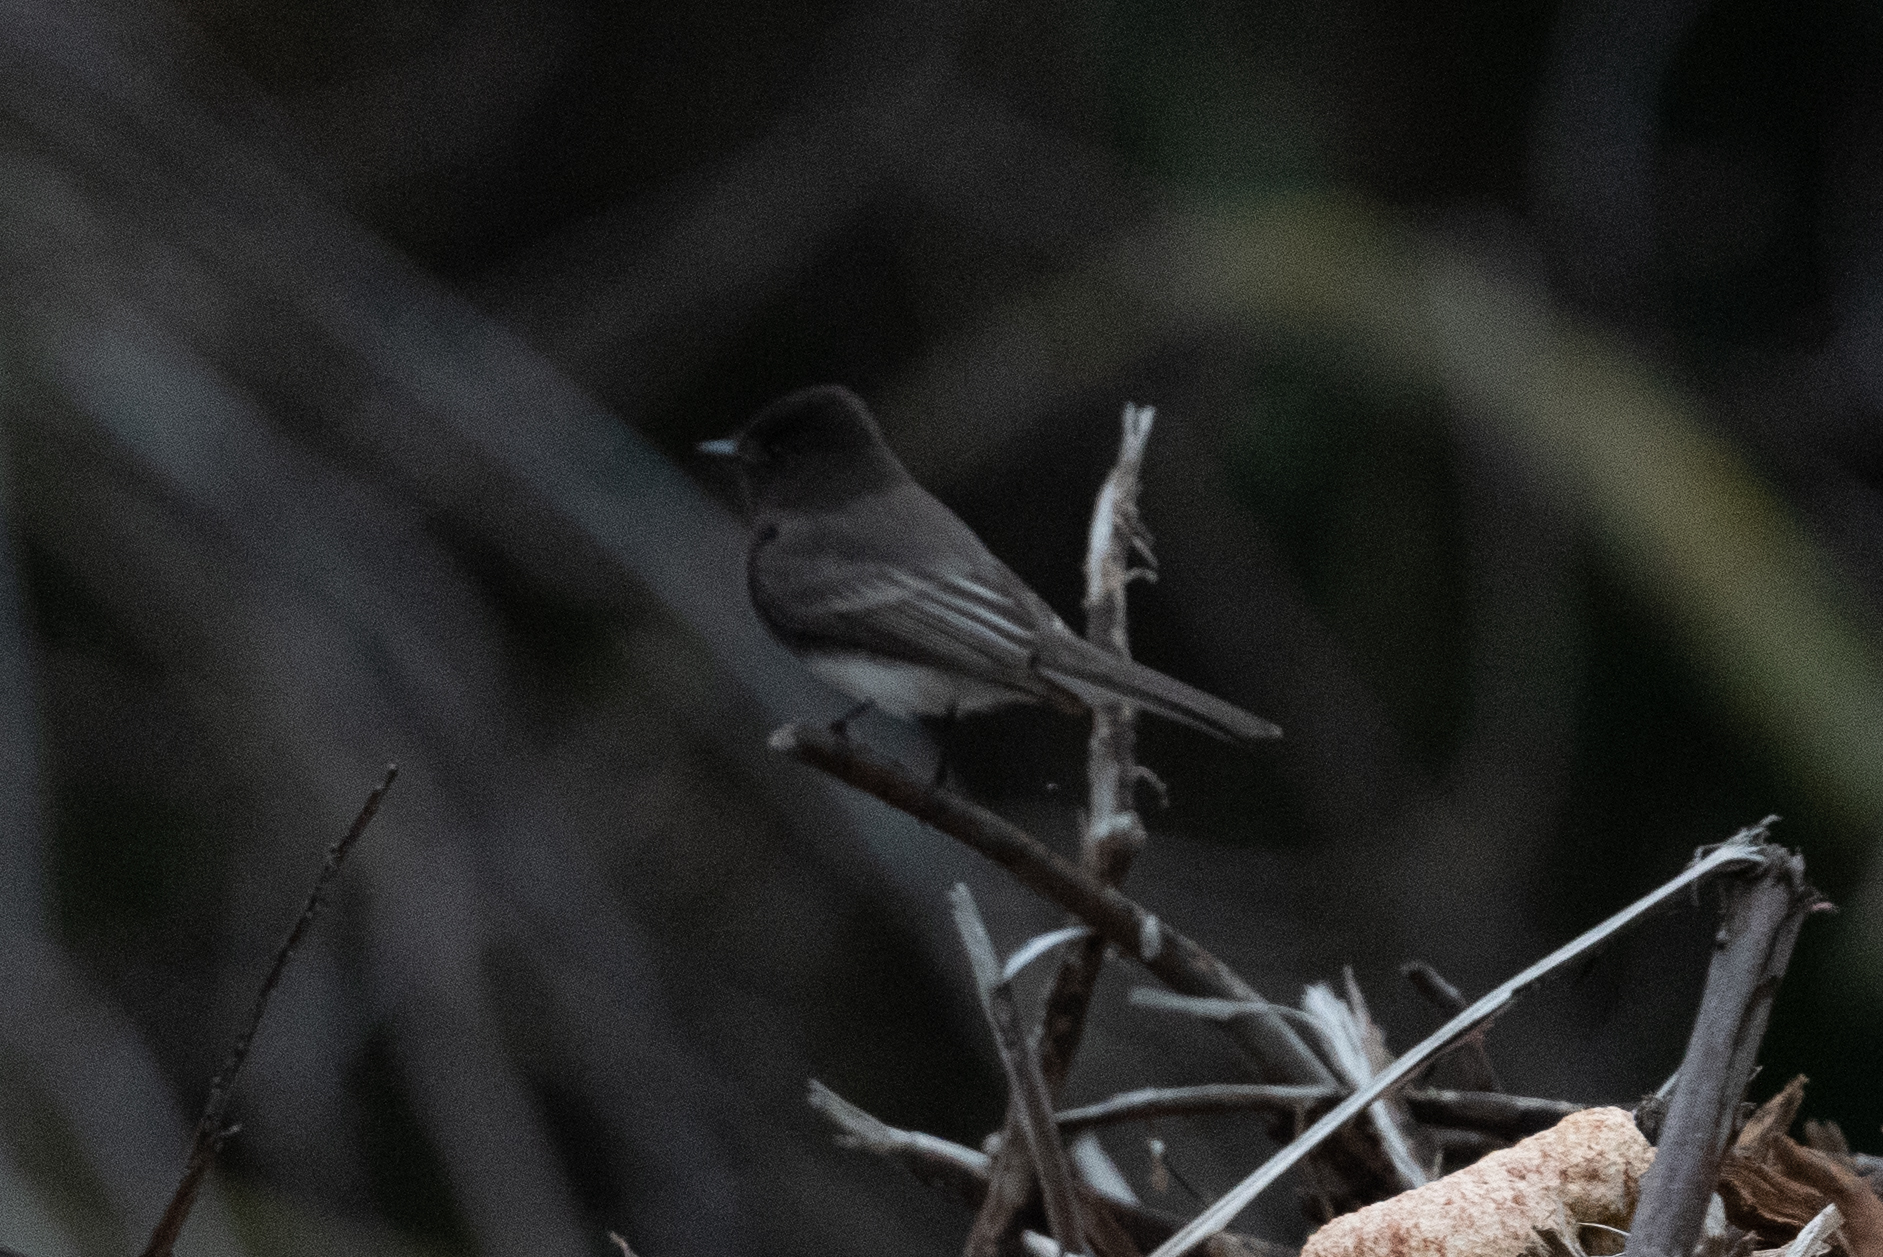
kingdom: Animalia
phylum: Chordata
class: Aves
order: Passeriformes
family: Tyrannidae
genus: Sayornis
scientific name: Sayornis nigricans
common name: Black phoebe
